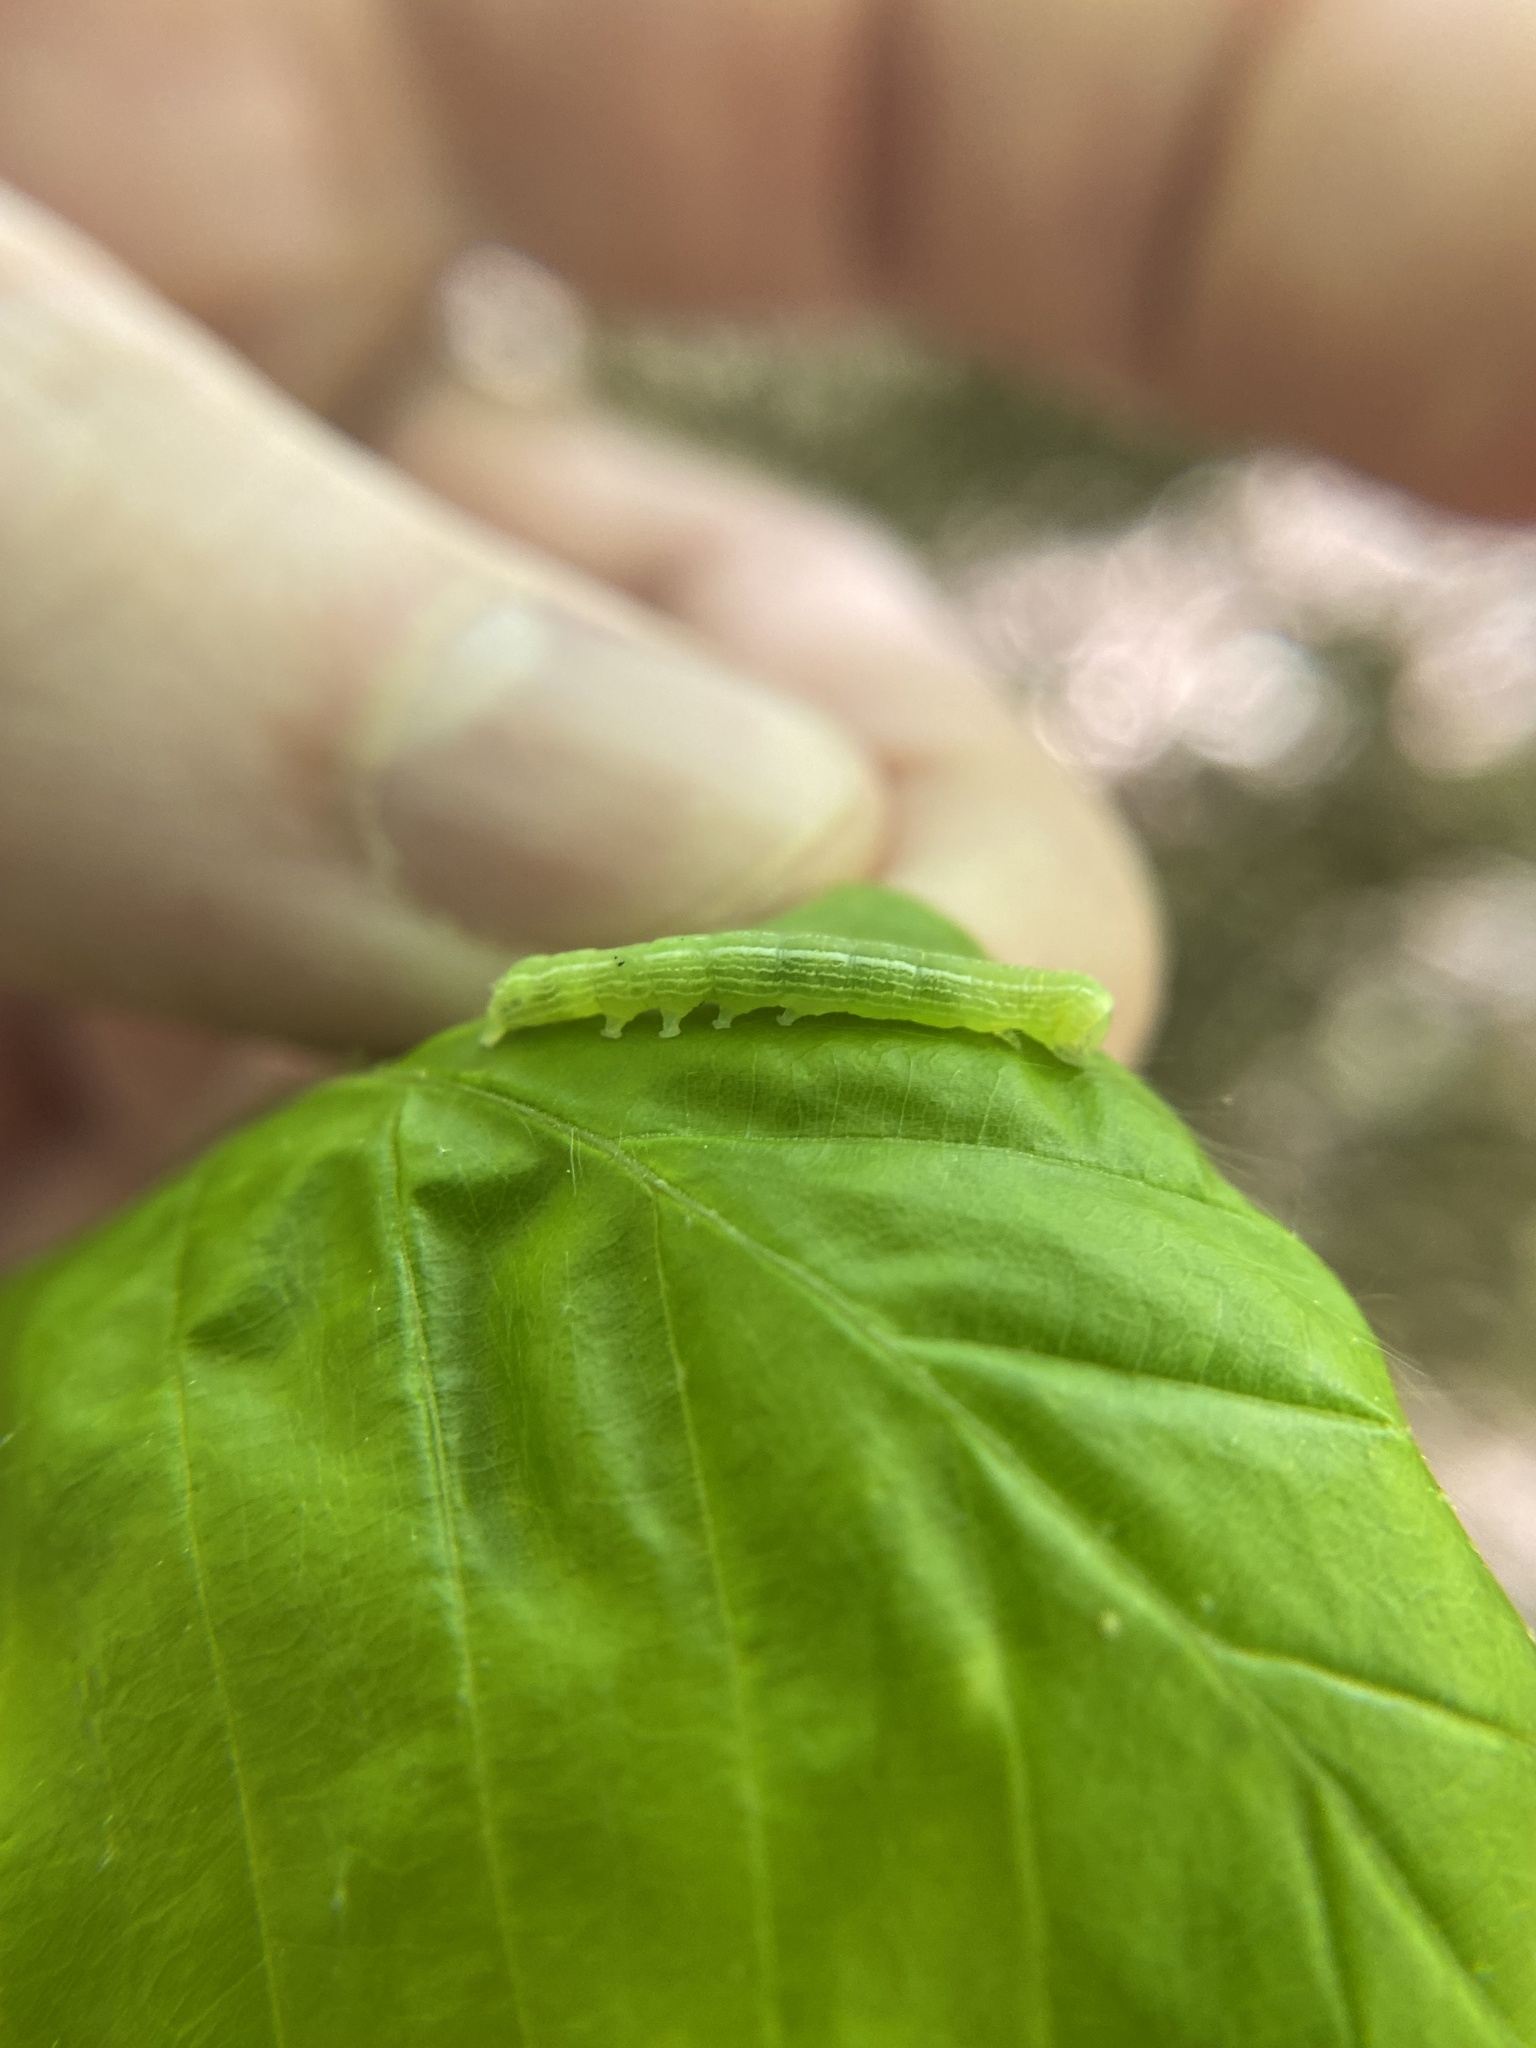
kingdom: Animalia
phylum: Arthropoda
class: Insecta
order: Lepidoptera
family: Noctuidae
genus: Kocakina
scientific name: Kocakina fidelis
